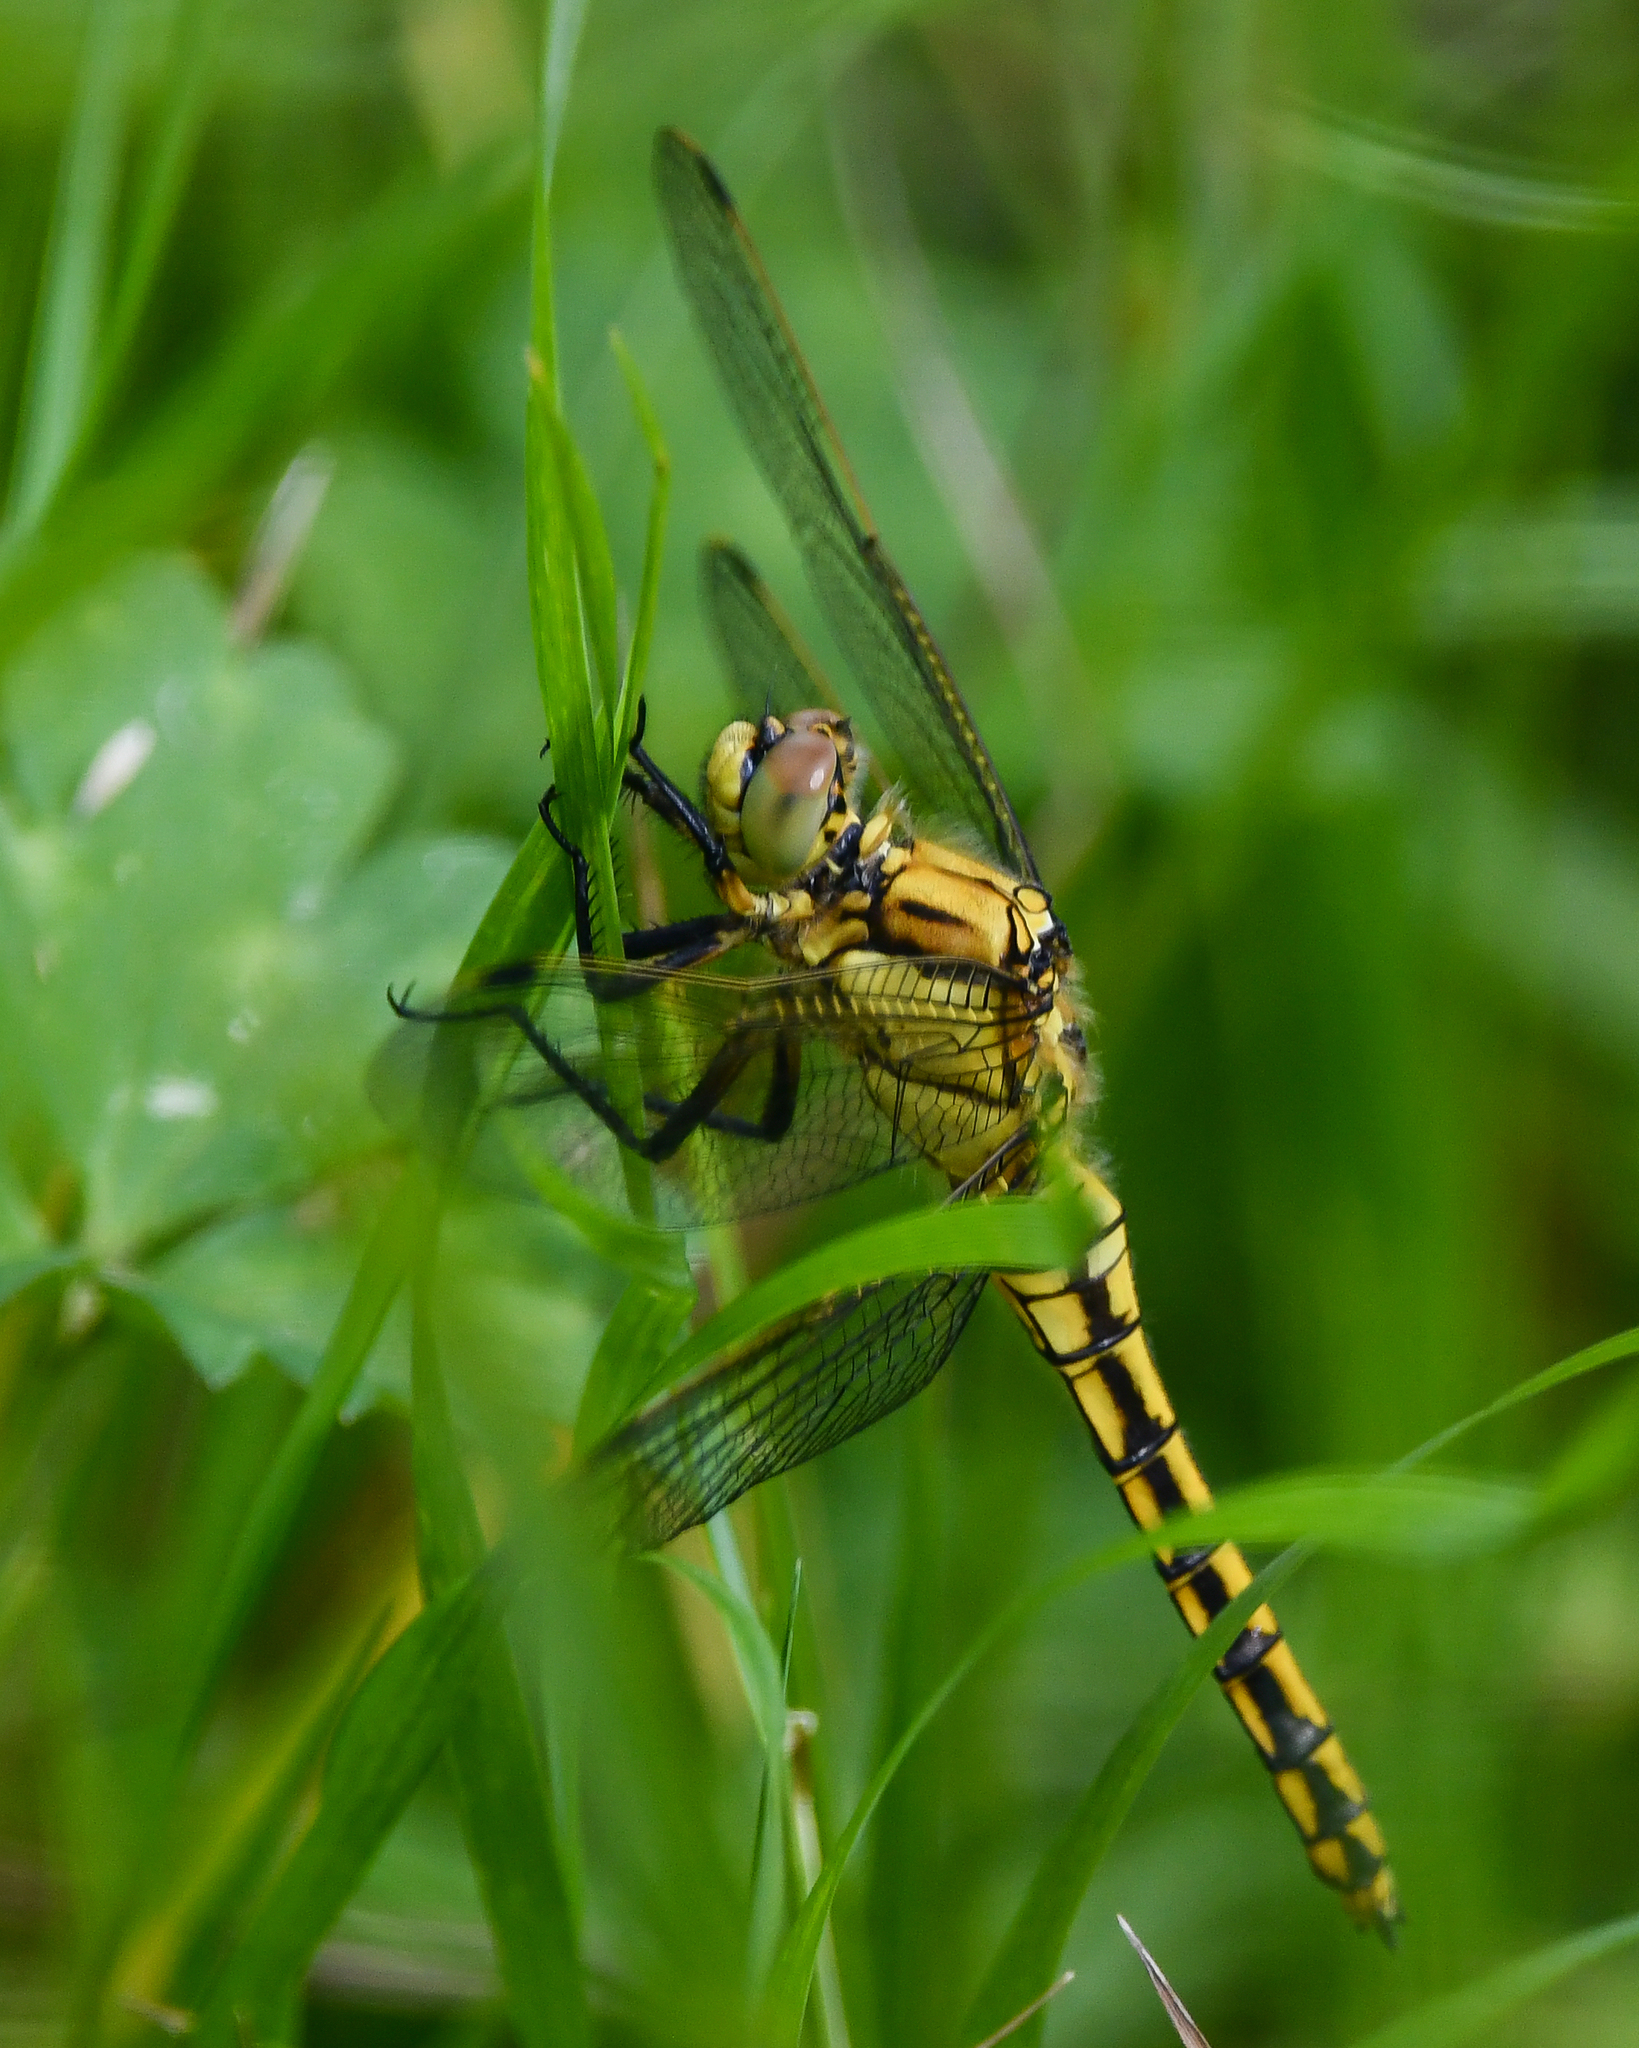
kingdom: Animalia
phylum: Arthropoda
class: Insecta
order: Odonata
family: Libellulidae
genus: Orthetrum
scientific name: Orthetrum cancellatum
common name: Black-tailed skimmer
